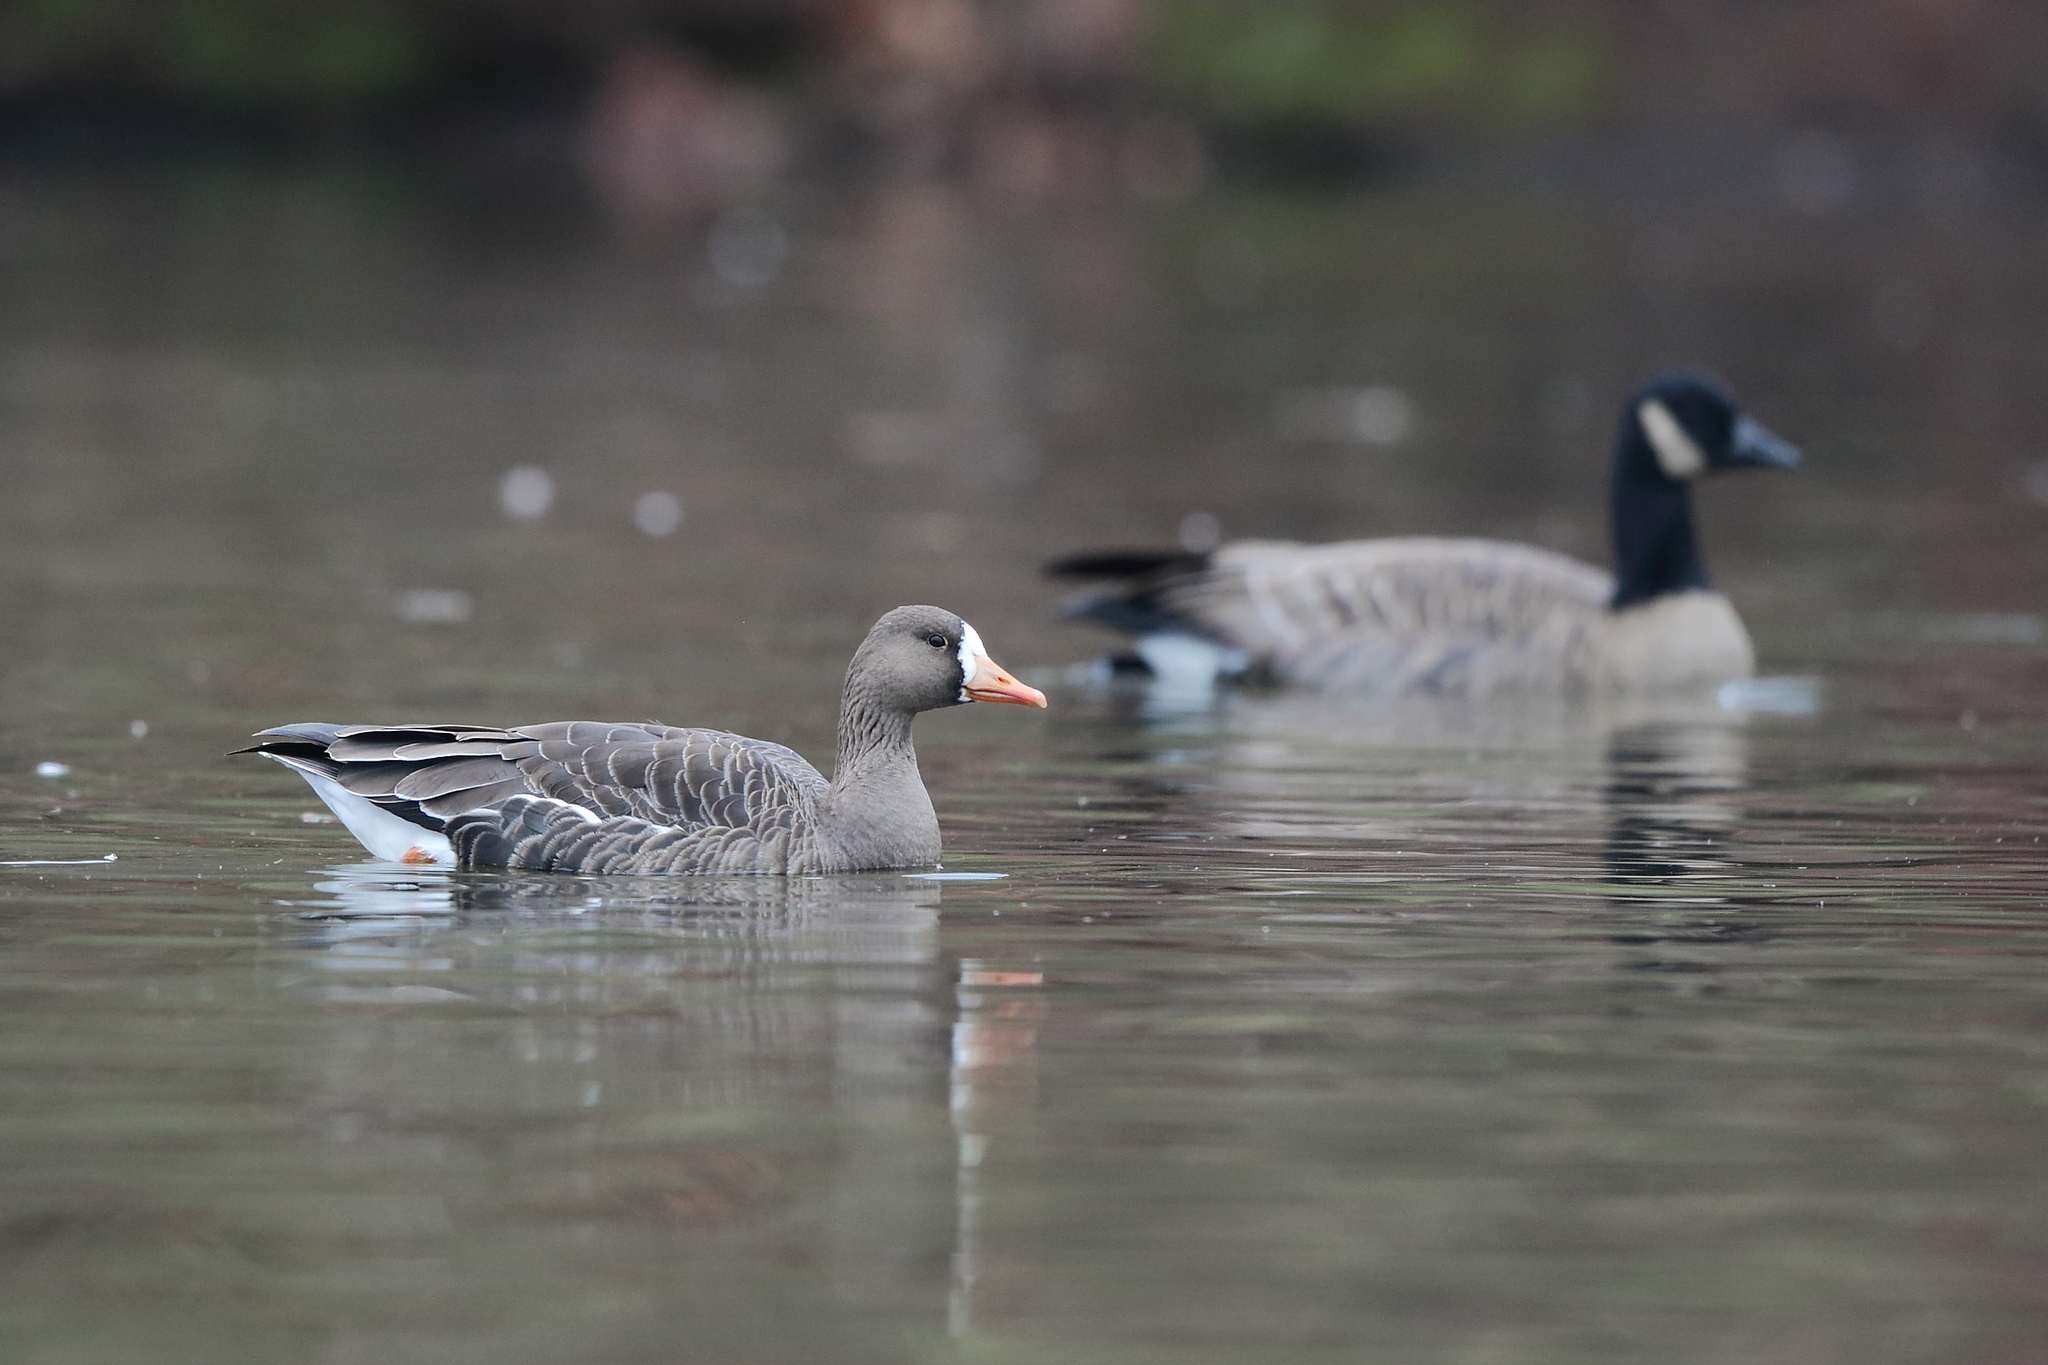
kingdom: Animalia
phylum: Chordata
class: Aves
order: Anseriformes
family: Anatidae
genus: Anser
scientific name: Anser albifrons
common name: Greater white-fronted goose
